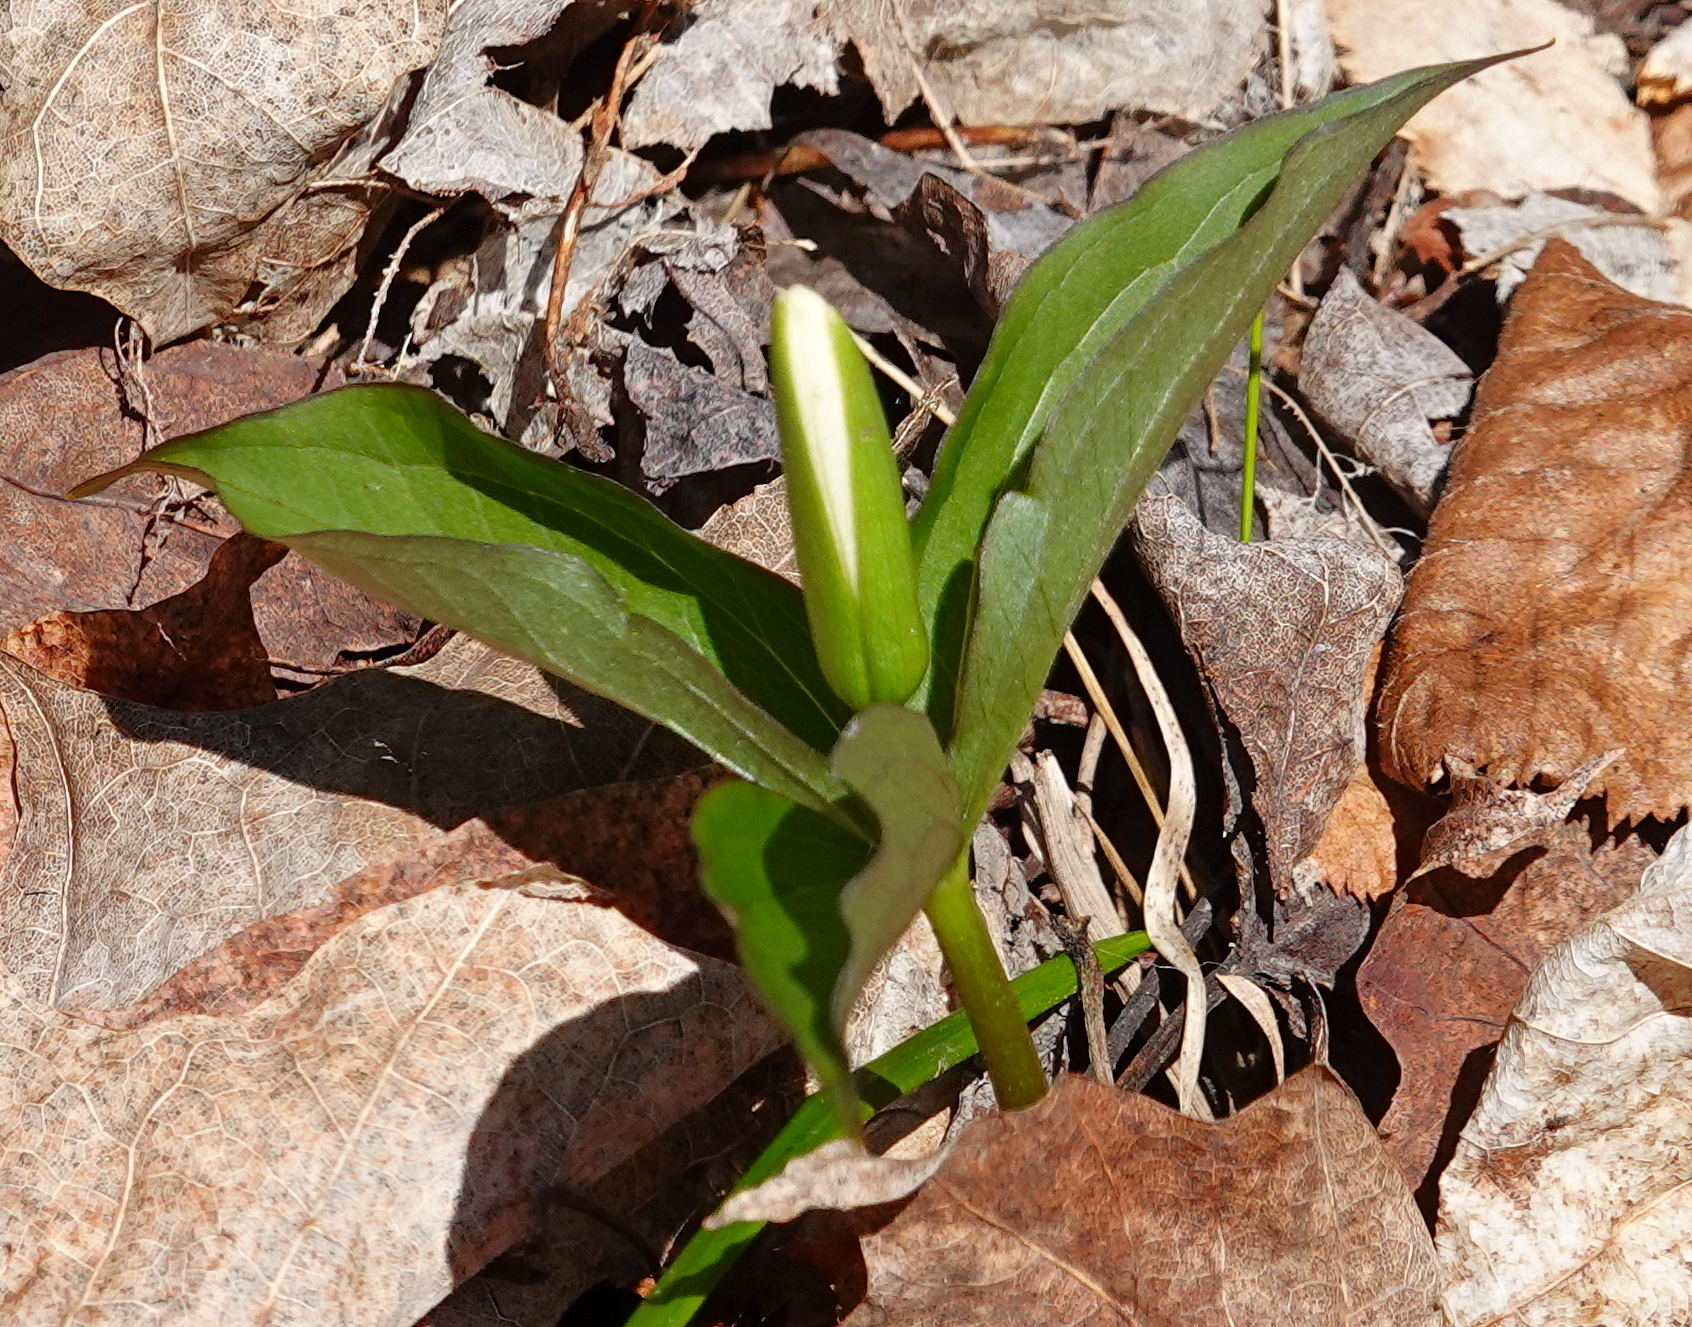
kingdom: Plantae
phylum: Tracheophyta
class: Liliopsida
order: Liliales
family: Melanthiaceae
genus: Trillium
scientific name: Trillium grandiflorum
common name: Great white trillium
